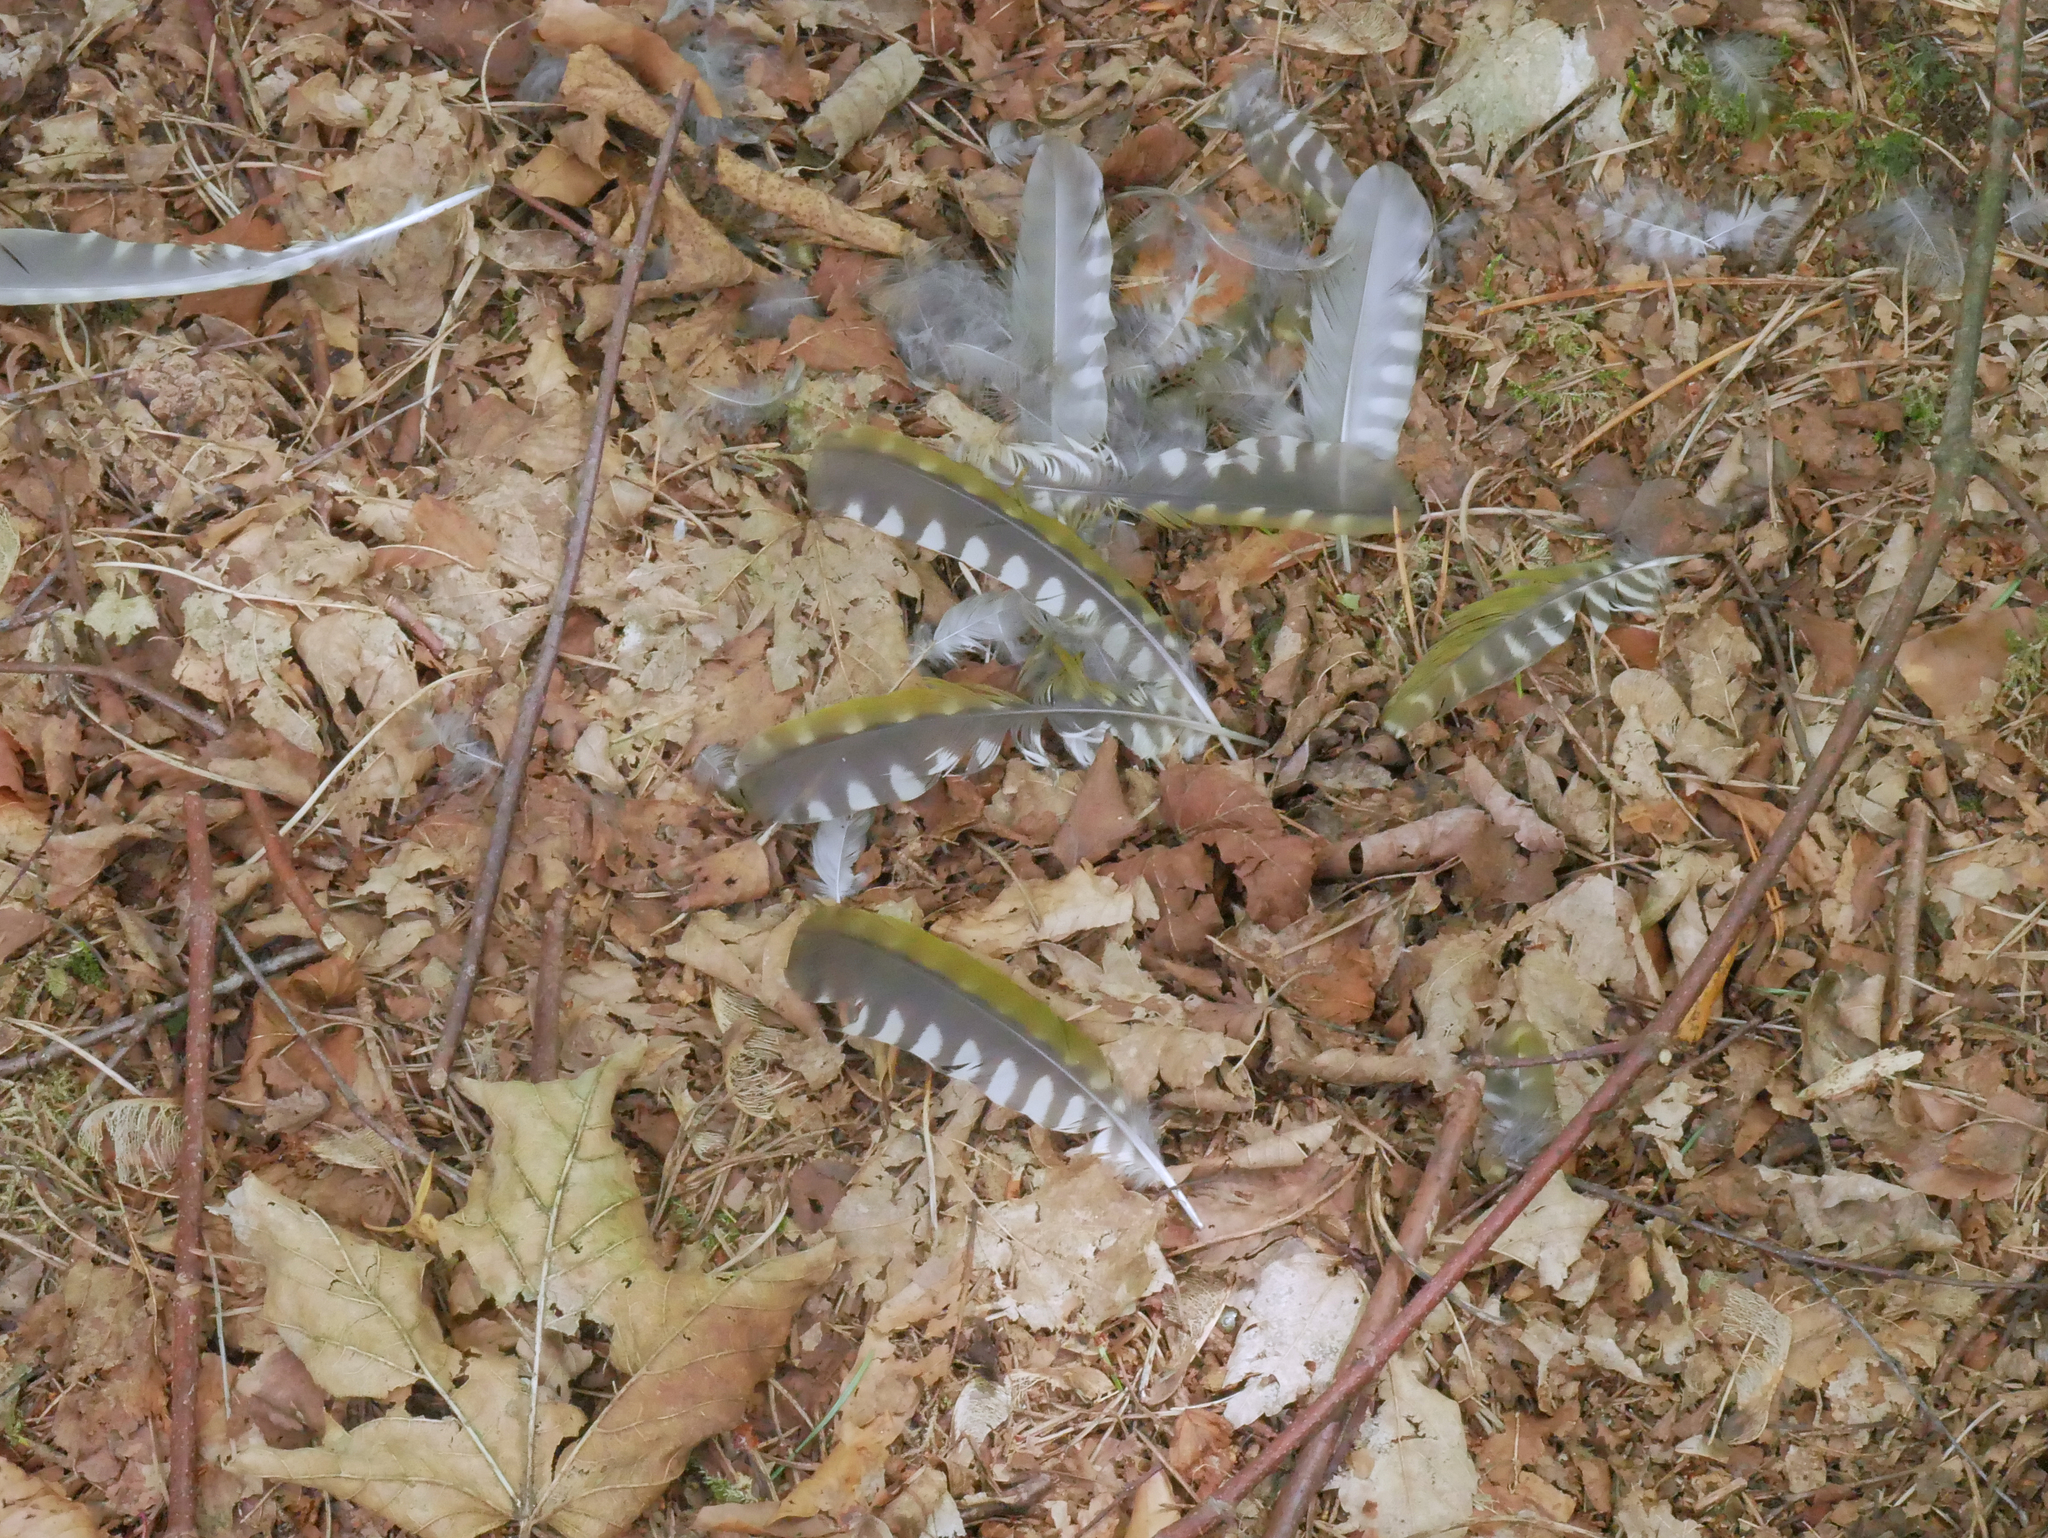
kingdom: Animalia
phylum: Chordata
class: Aves
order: Piciformes
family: Picidae
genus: Picus
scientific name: Picus viridis
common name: European green woodpecker
